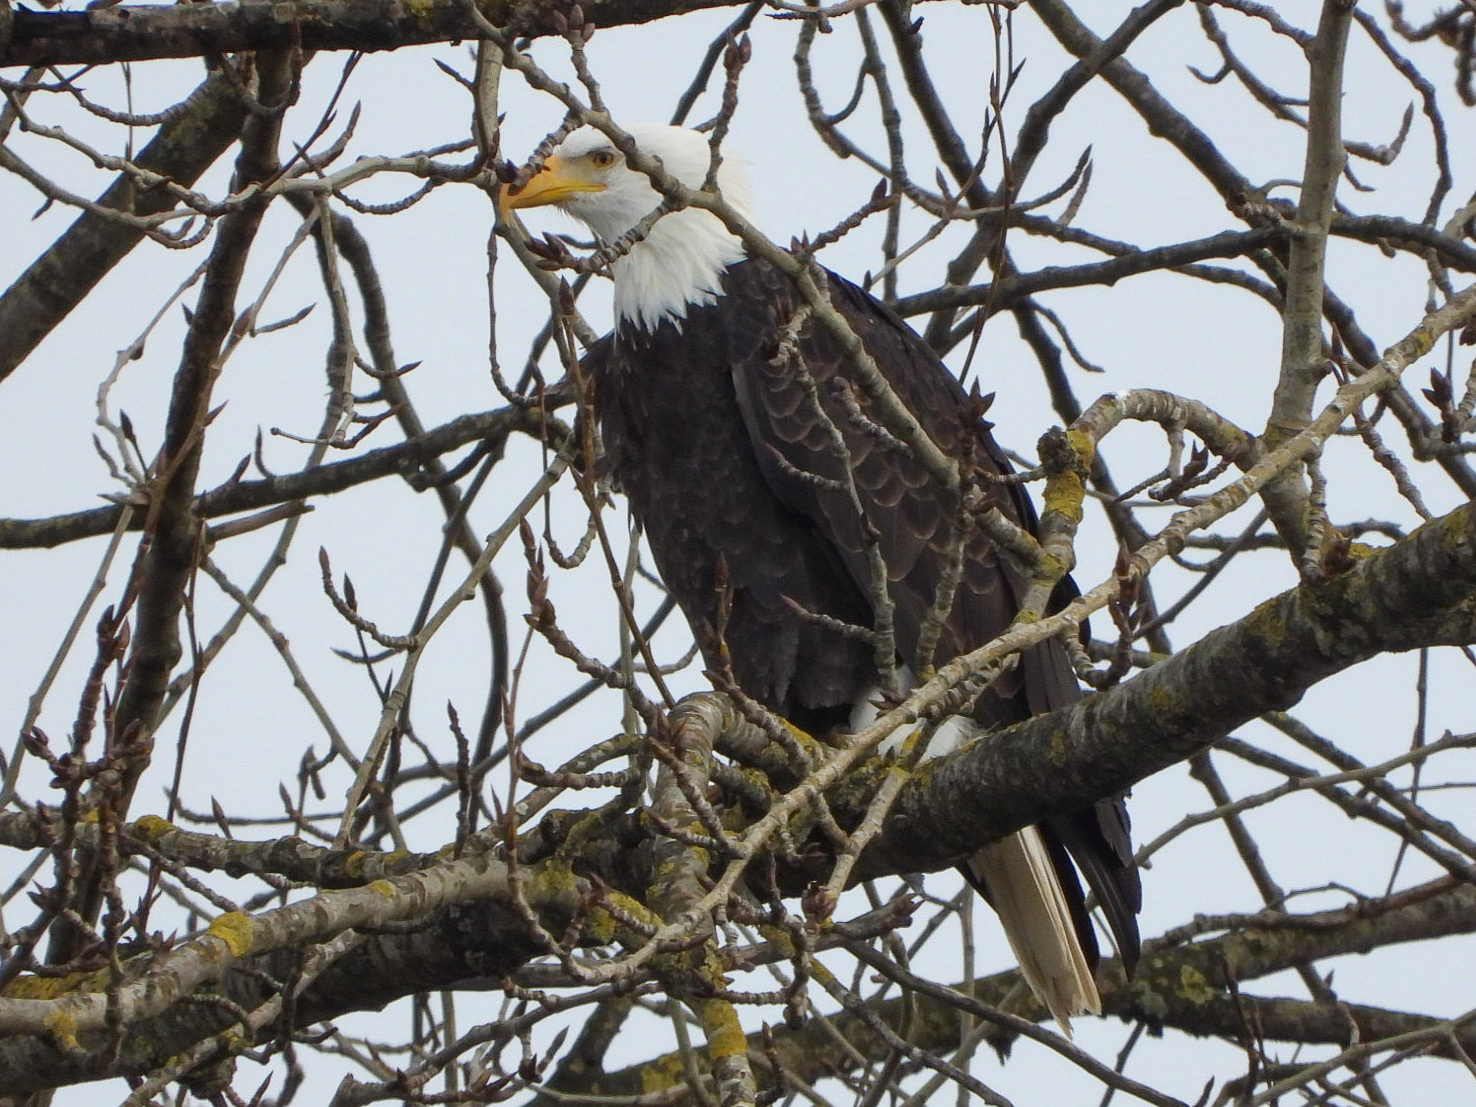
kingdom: Animalia
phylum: Chordata
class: Aves
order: Accipitriformes
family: Accipitridae
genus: Haliaeetus
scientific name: Haliaeetus leucocephalus
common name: Bald eagle
